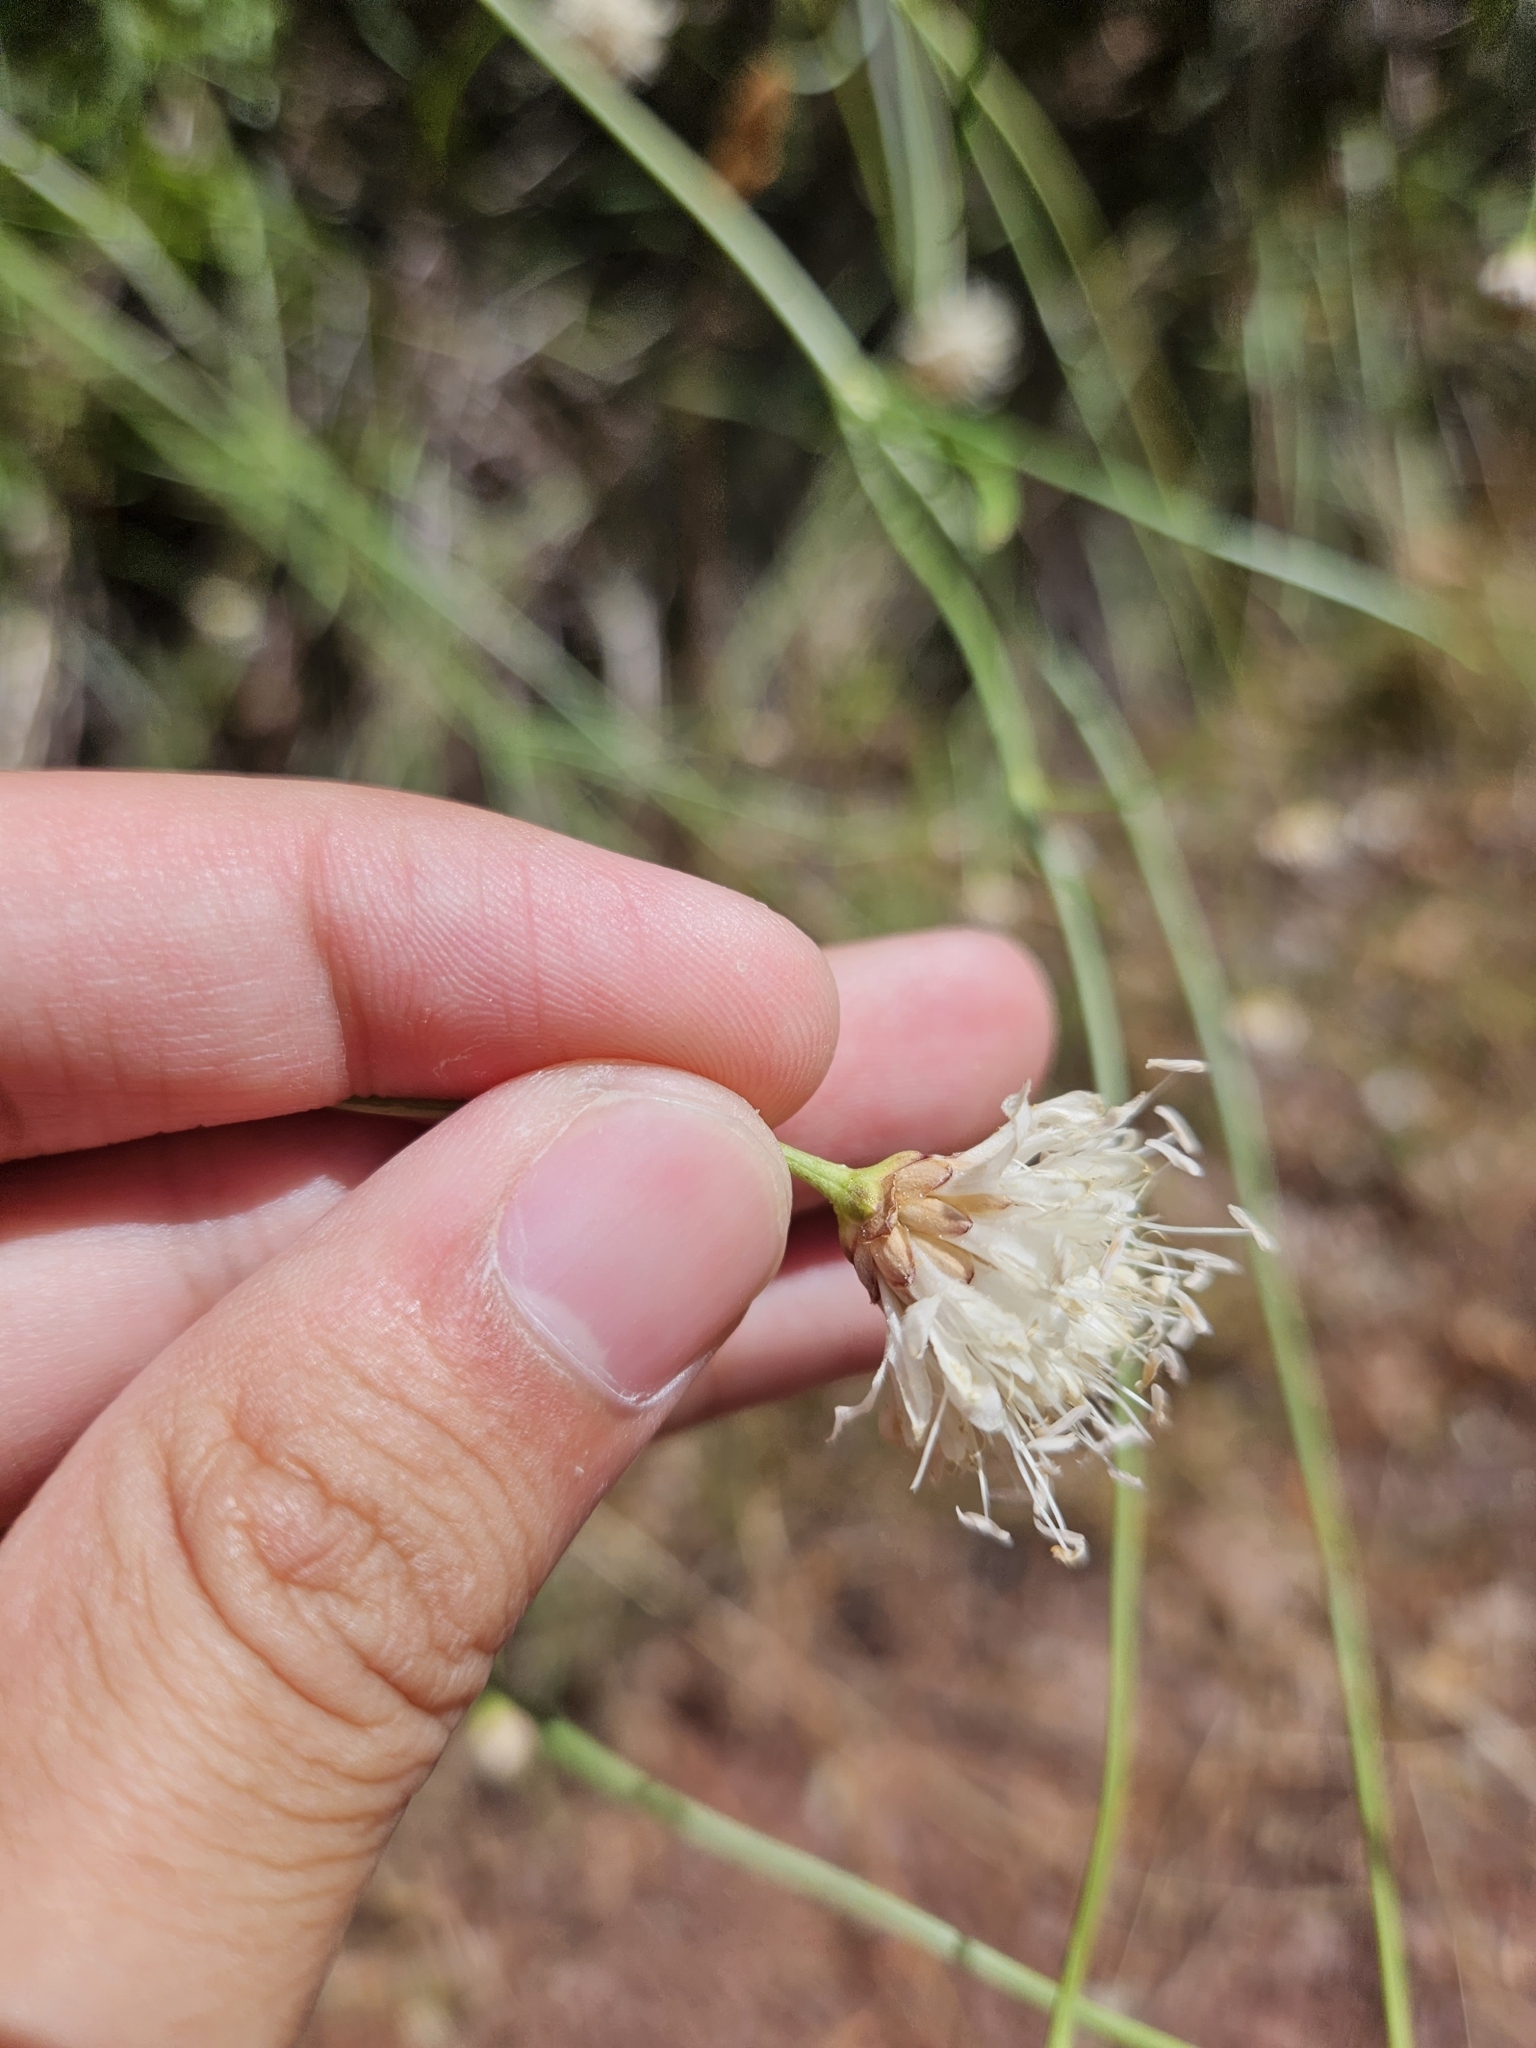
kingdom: Plantae
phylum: Tracheophyta
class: Magnoliopsida
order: Dipsacales
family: Caprifoliaceae
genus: Cephalaria
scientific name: Cephalaria leucantha
